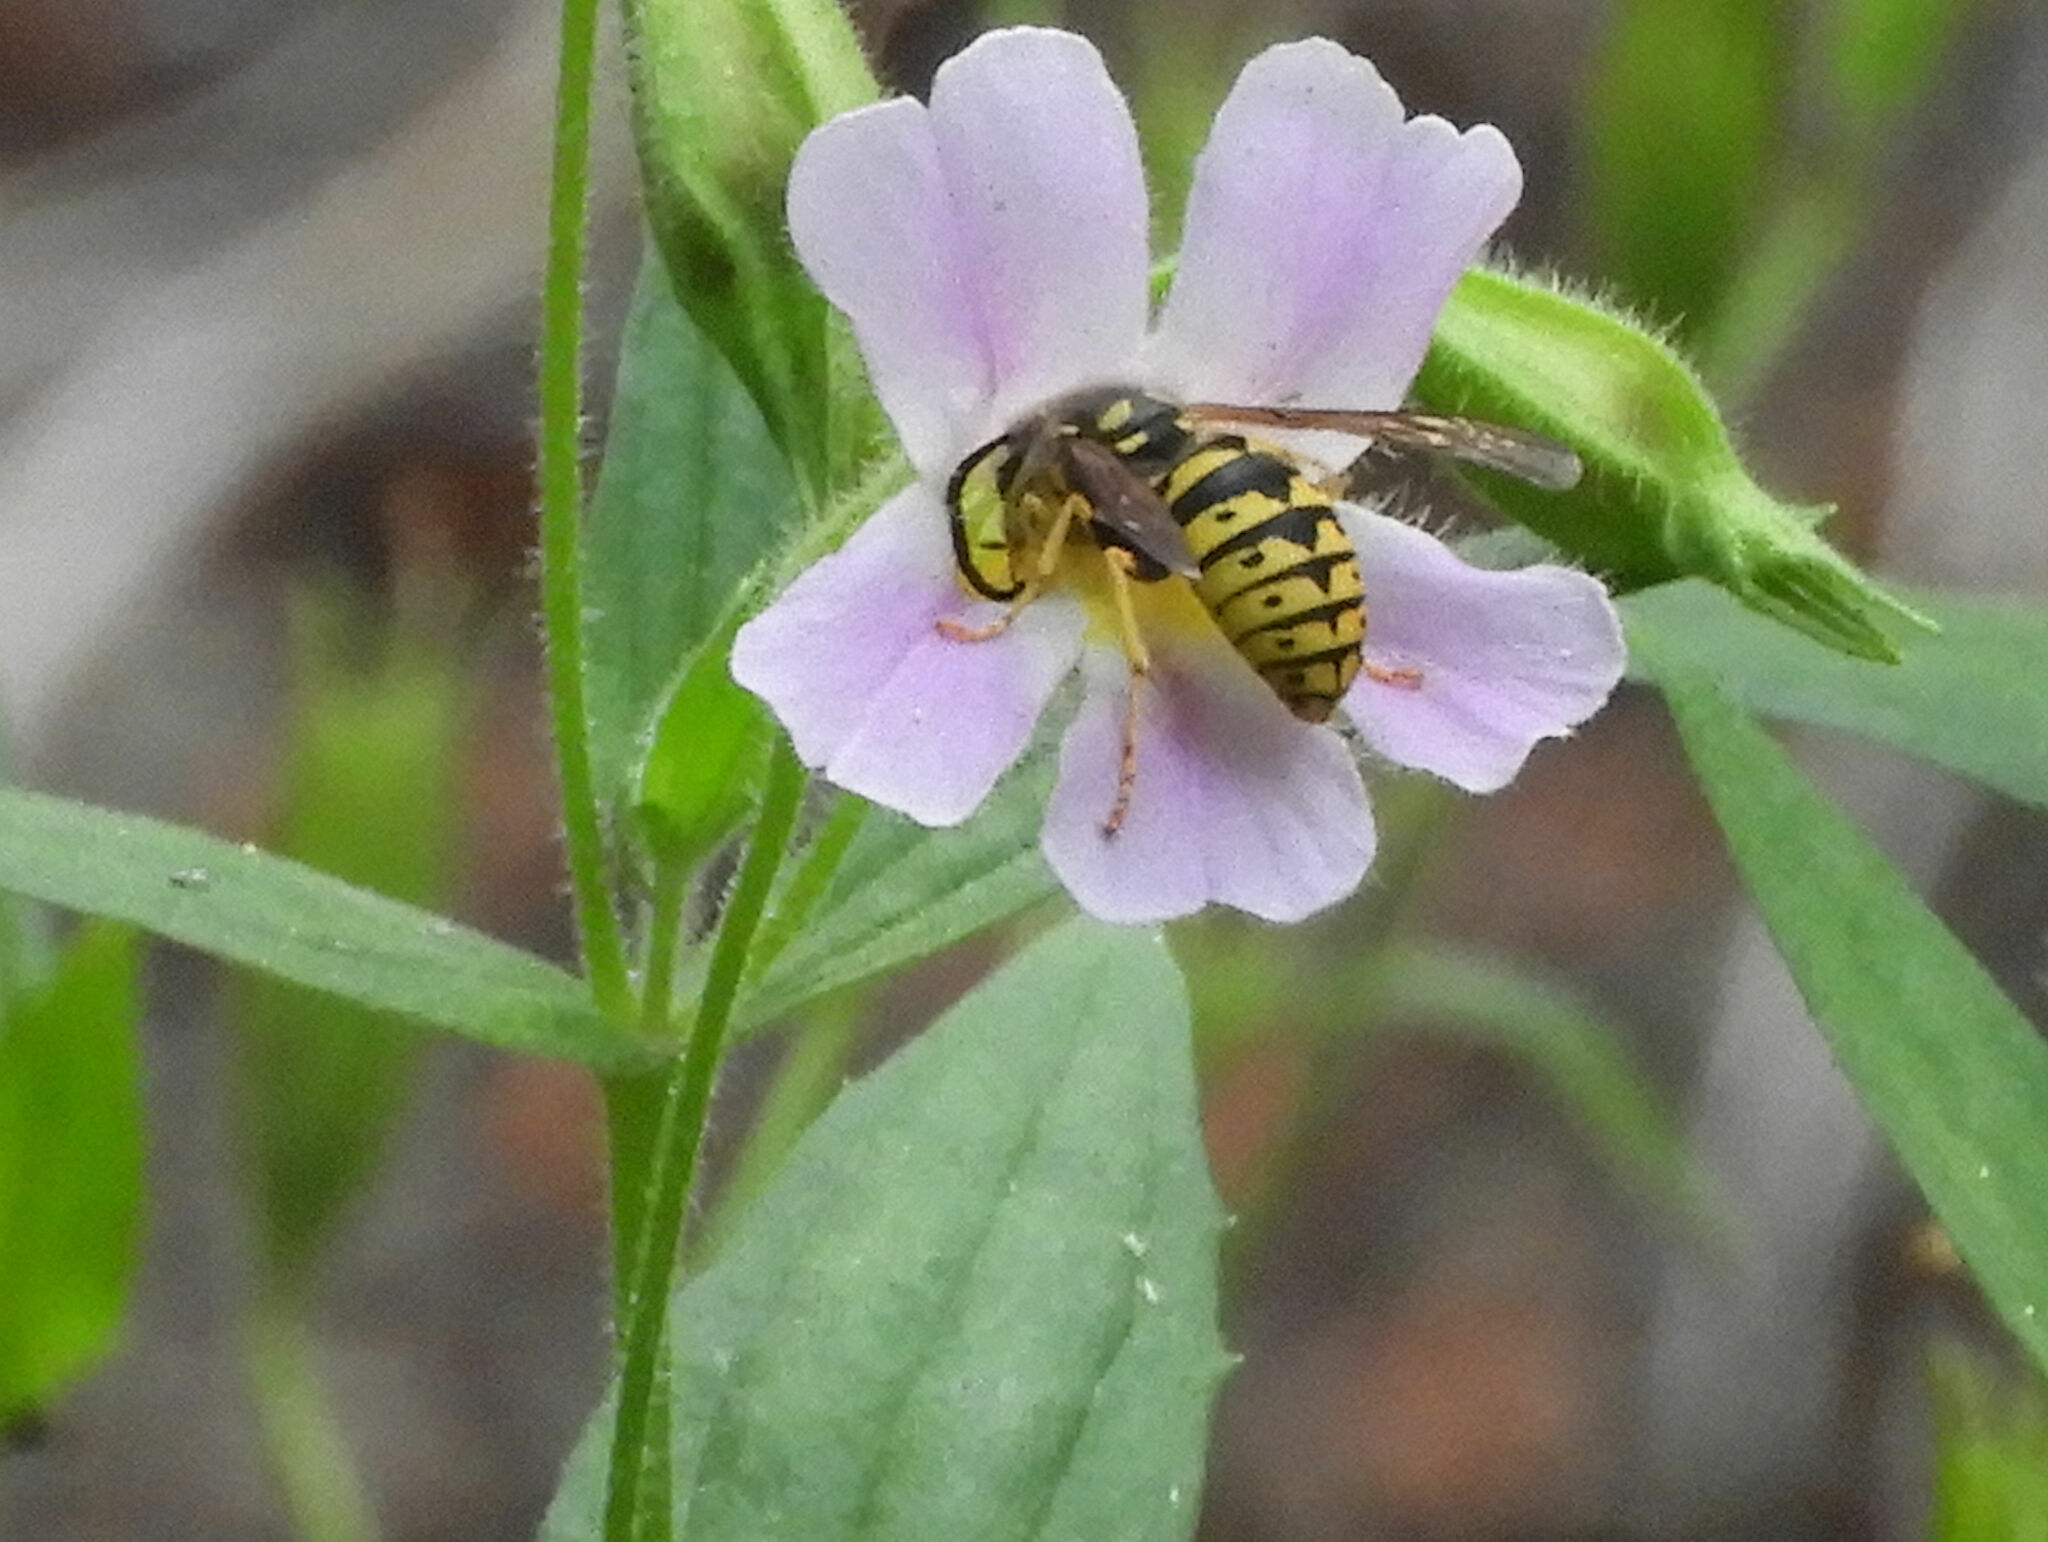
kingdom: Animalia
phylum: Arthropoda
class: Insecta
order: Hymenoptera
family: Vespidae
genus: Dolichovespula
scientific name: Dolichovespula arenaria
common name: Aerial yellowjacket
